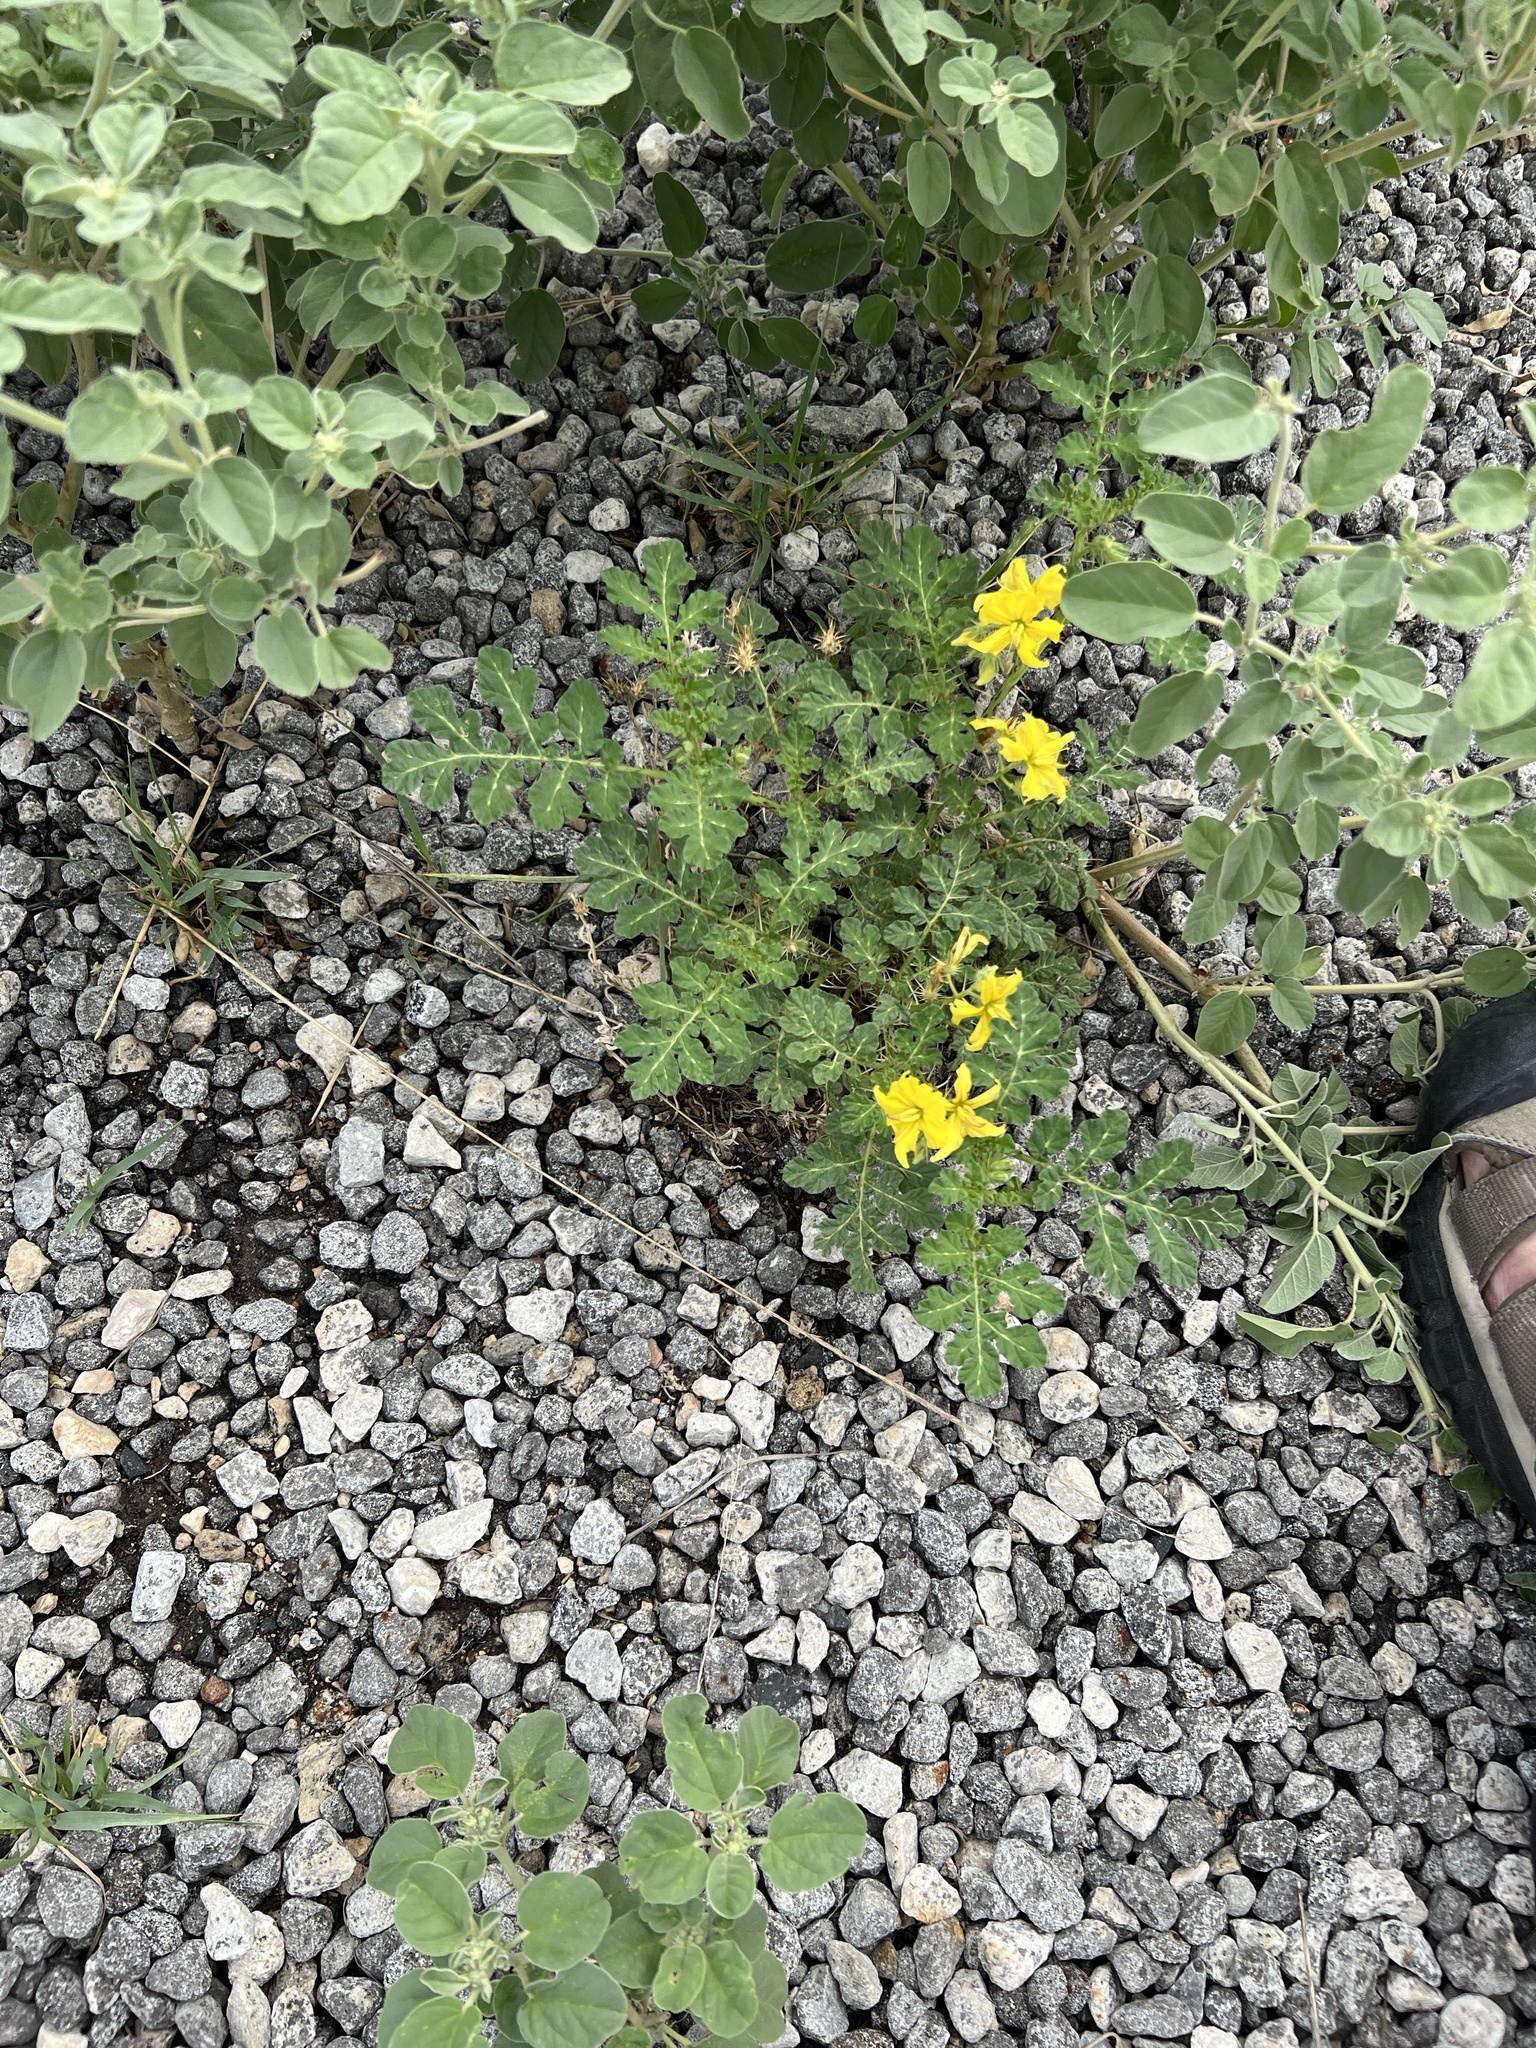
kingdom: Plantae
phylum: Tracheophyta
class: Magnoliopsida
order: Solanales
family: Solanaceae
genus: Solanum
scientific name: Solanum angustifolium
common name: Buffalobur nightshade
